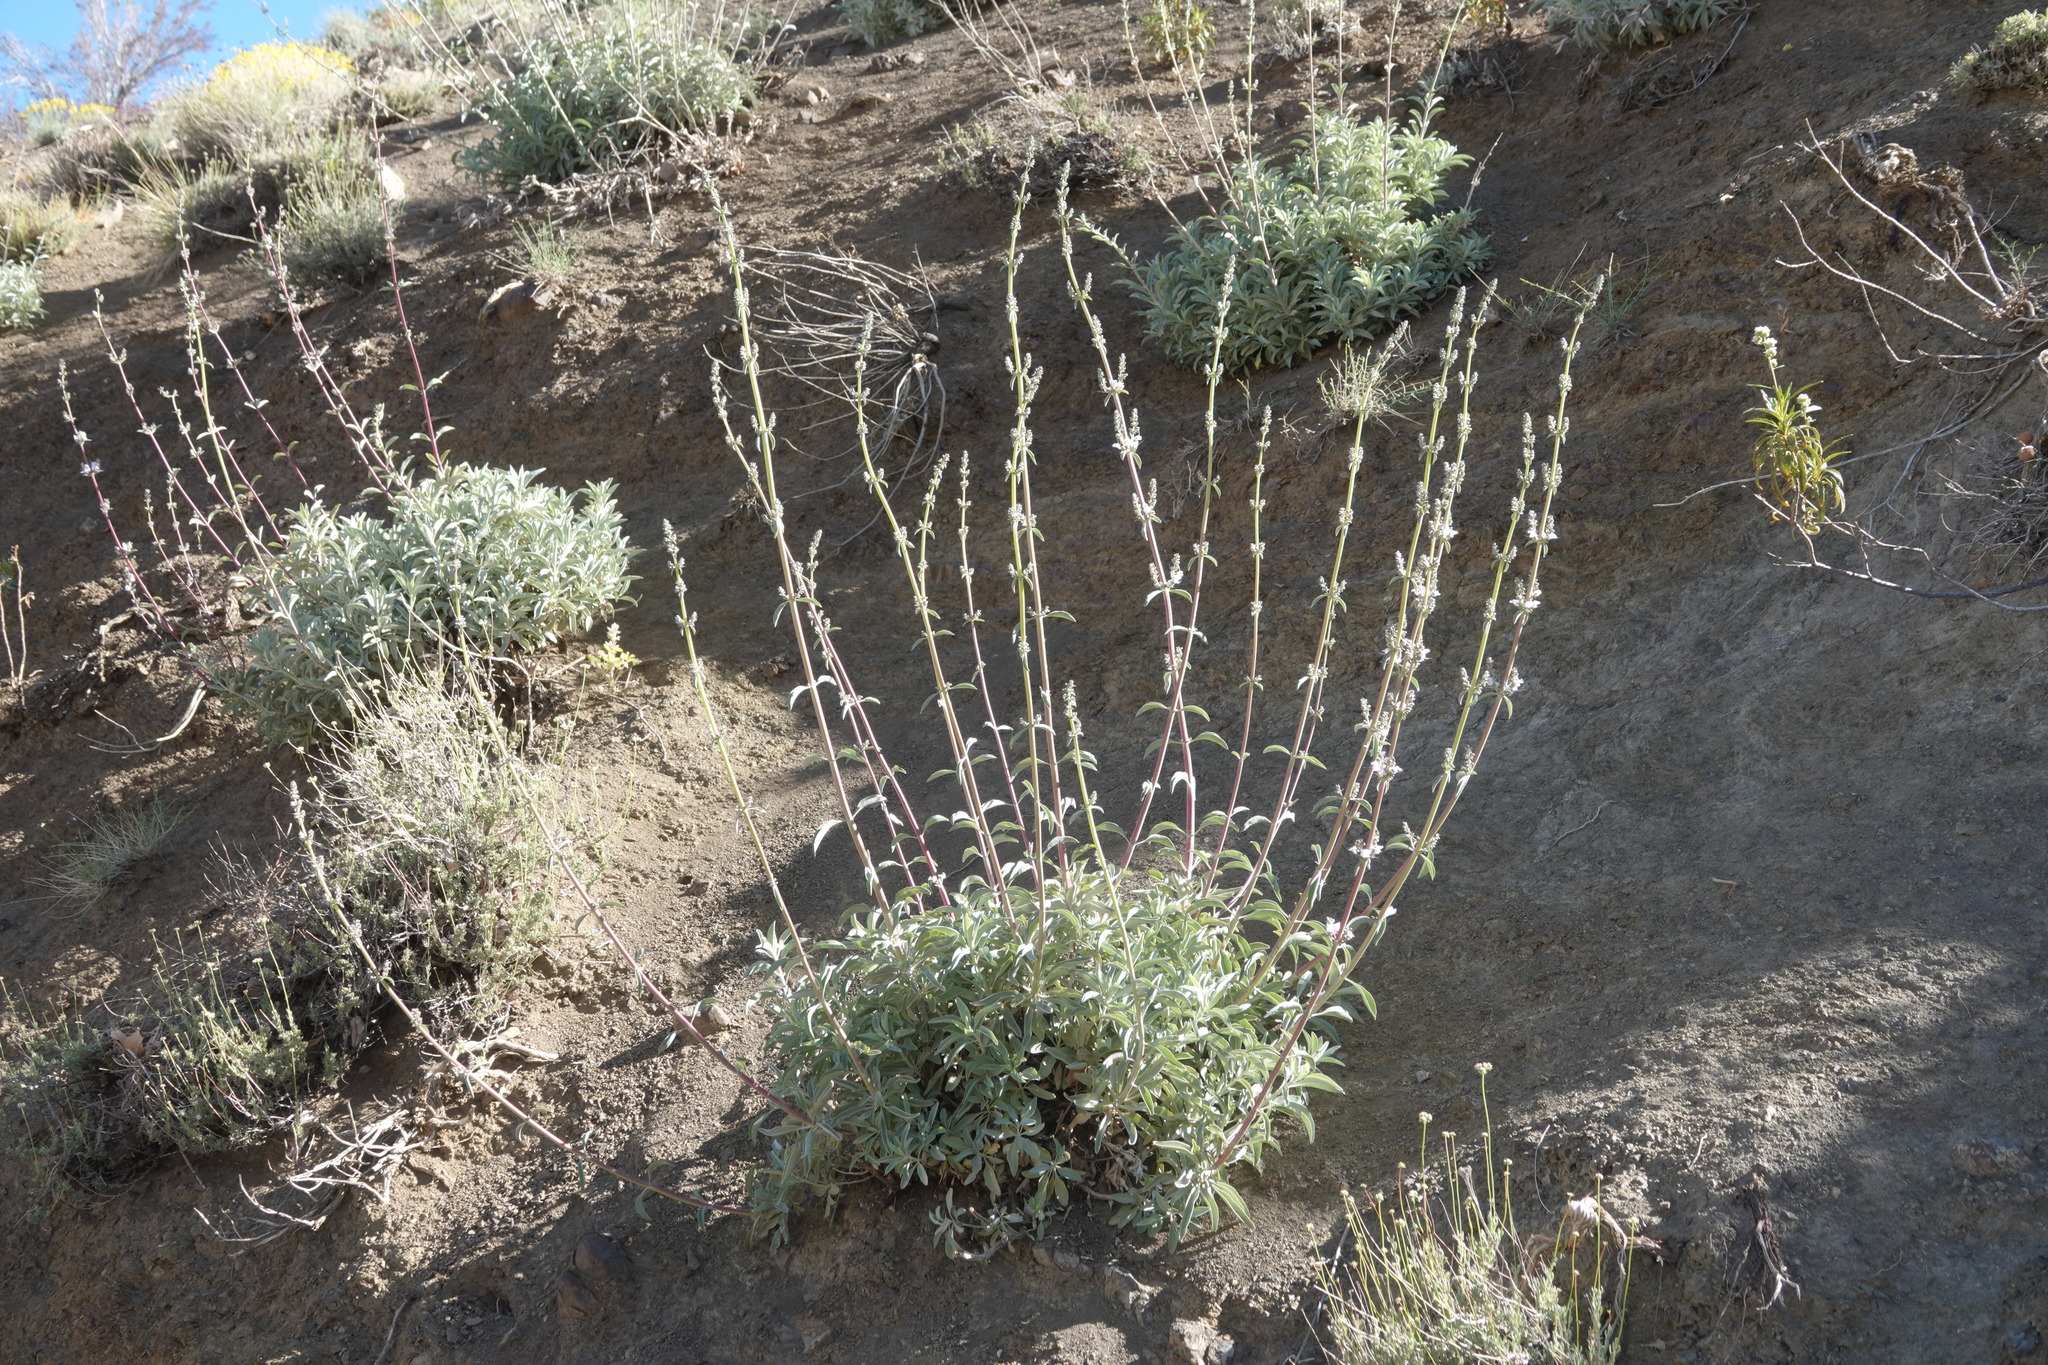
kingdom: Plantae
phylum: Tracheophyta
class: Magnoliopsida
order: Lamiales
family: Lamiaceae
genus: Salvia
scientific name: Salvia apiana
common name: White sage
